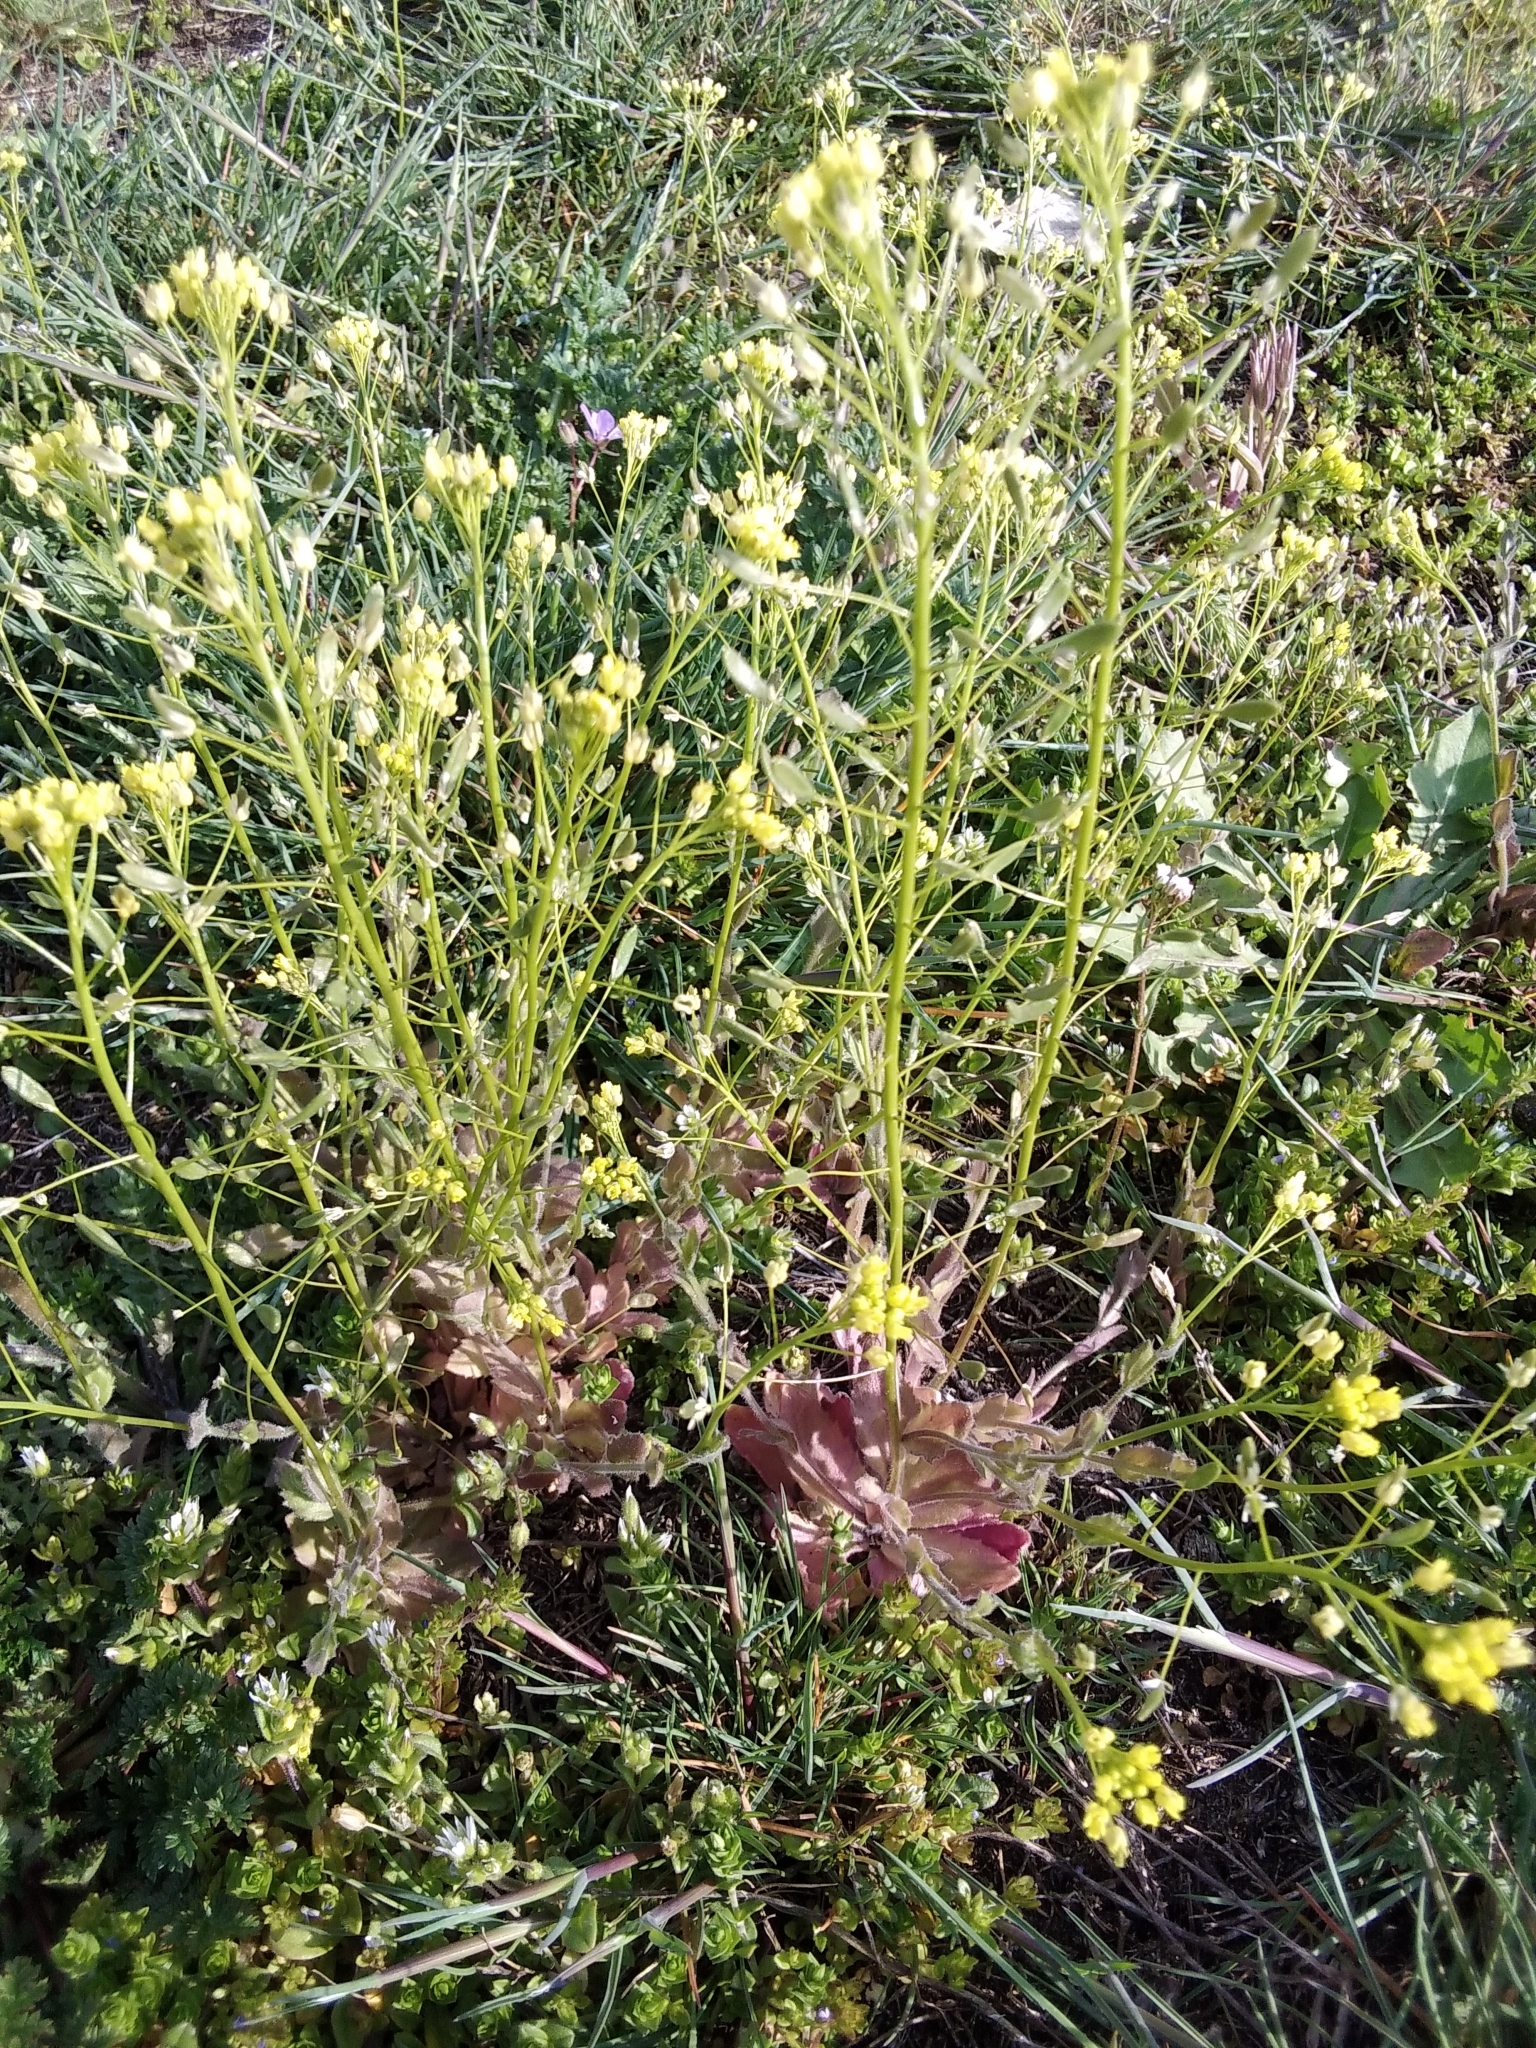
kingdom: Plantae
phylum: Tracheophyta
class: Magnoliopsida
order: Brassicales
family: Brassicaceae
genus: Draba
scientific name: Draba nemorosa
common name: Wood whitlow-grass
